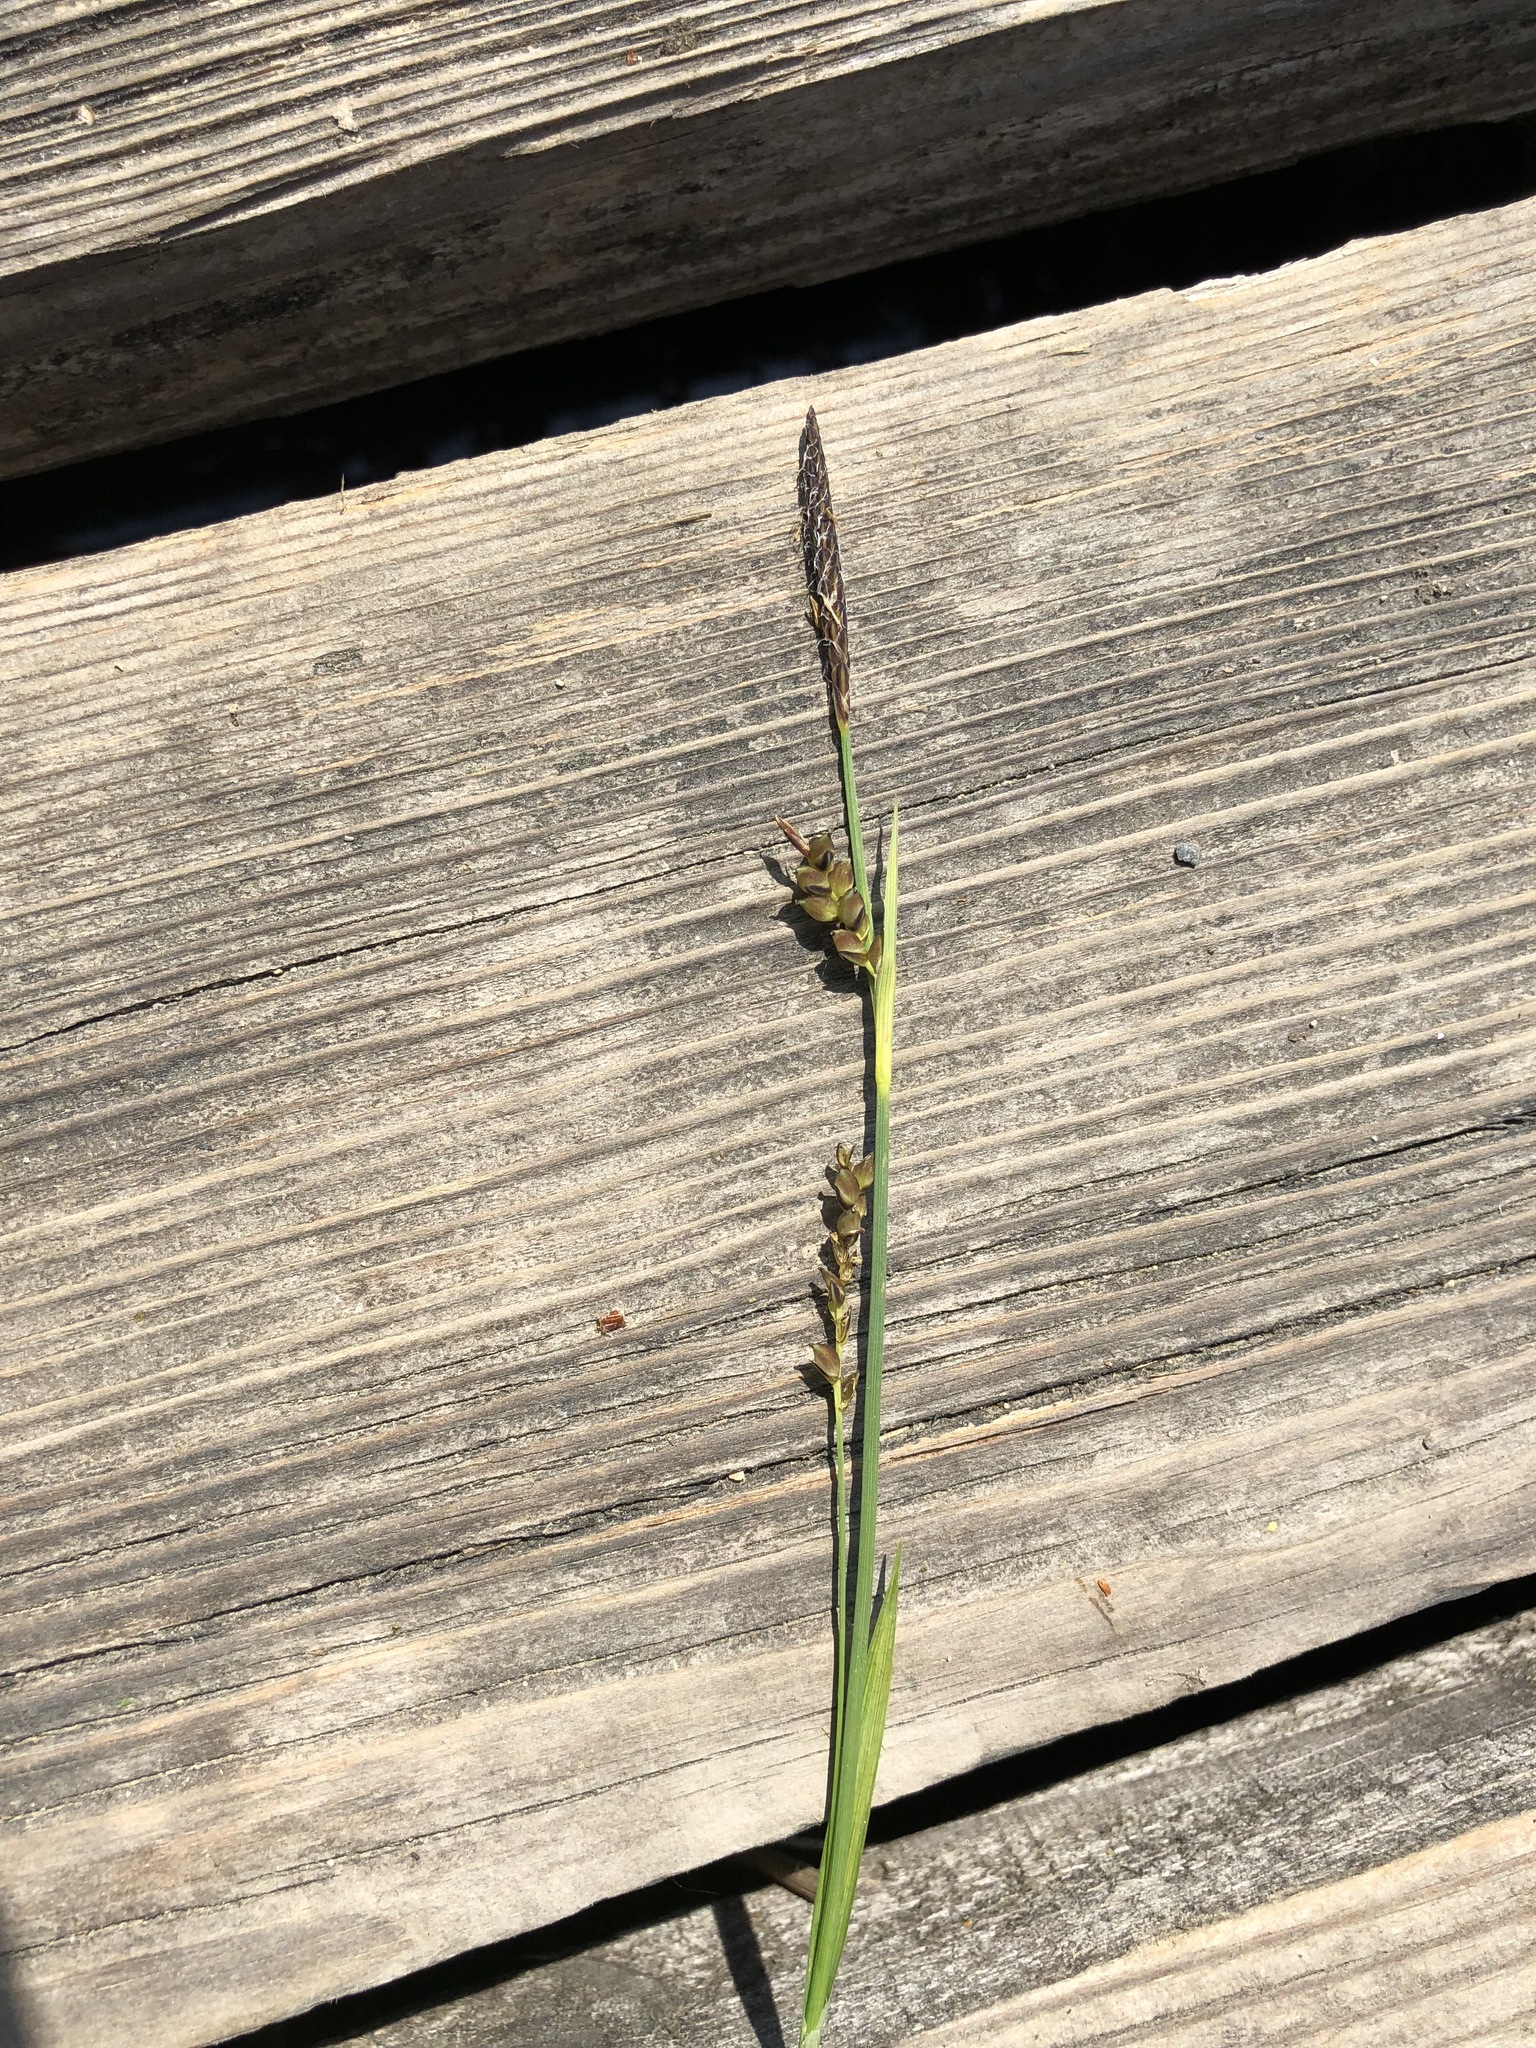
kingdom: Plantae
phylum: Tracheophyta
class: Liliopsida
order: Poales
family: Cyperaceae
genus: Carex
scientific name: Carex panicea
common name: Carnation sedge
